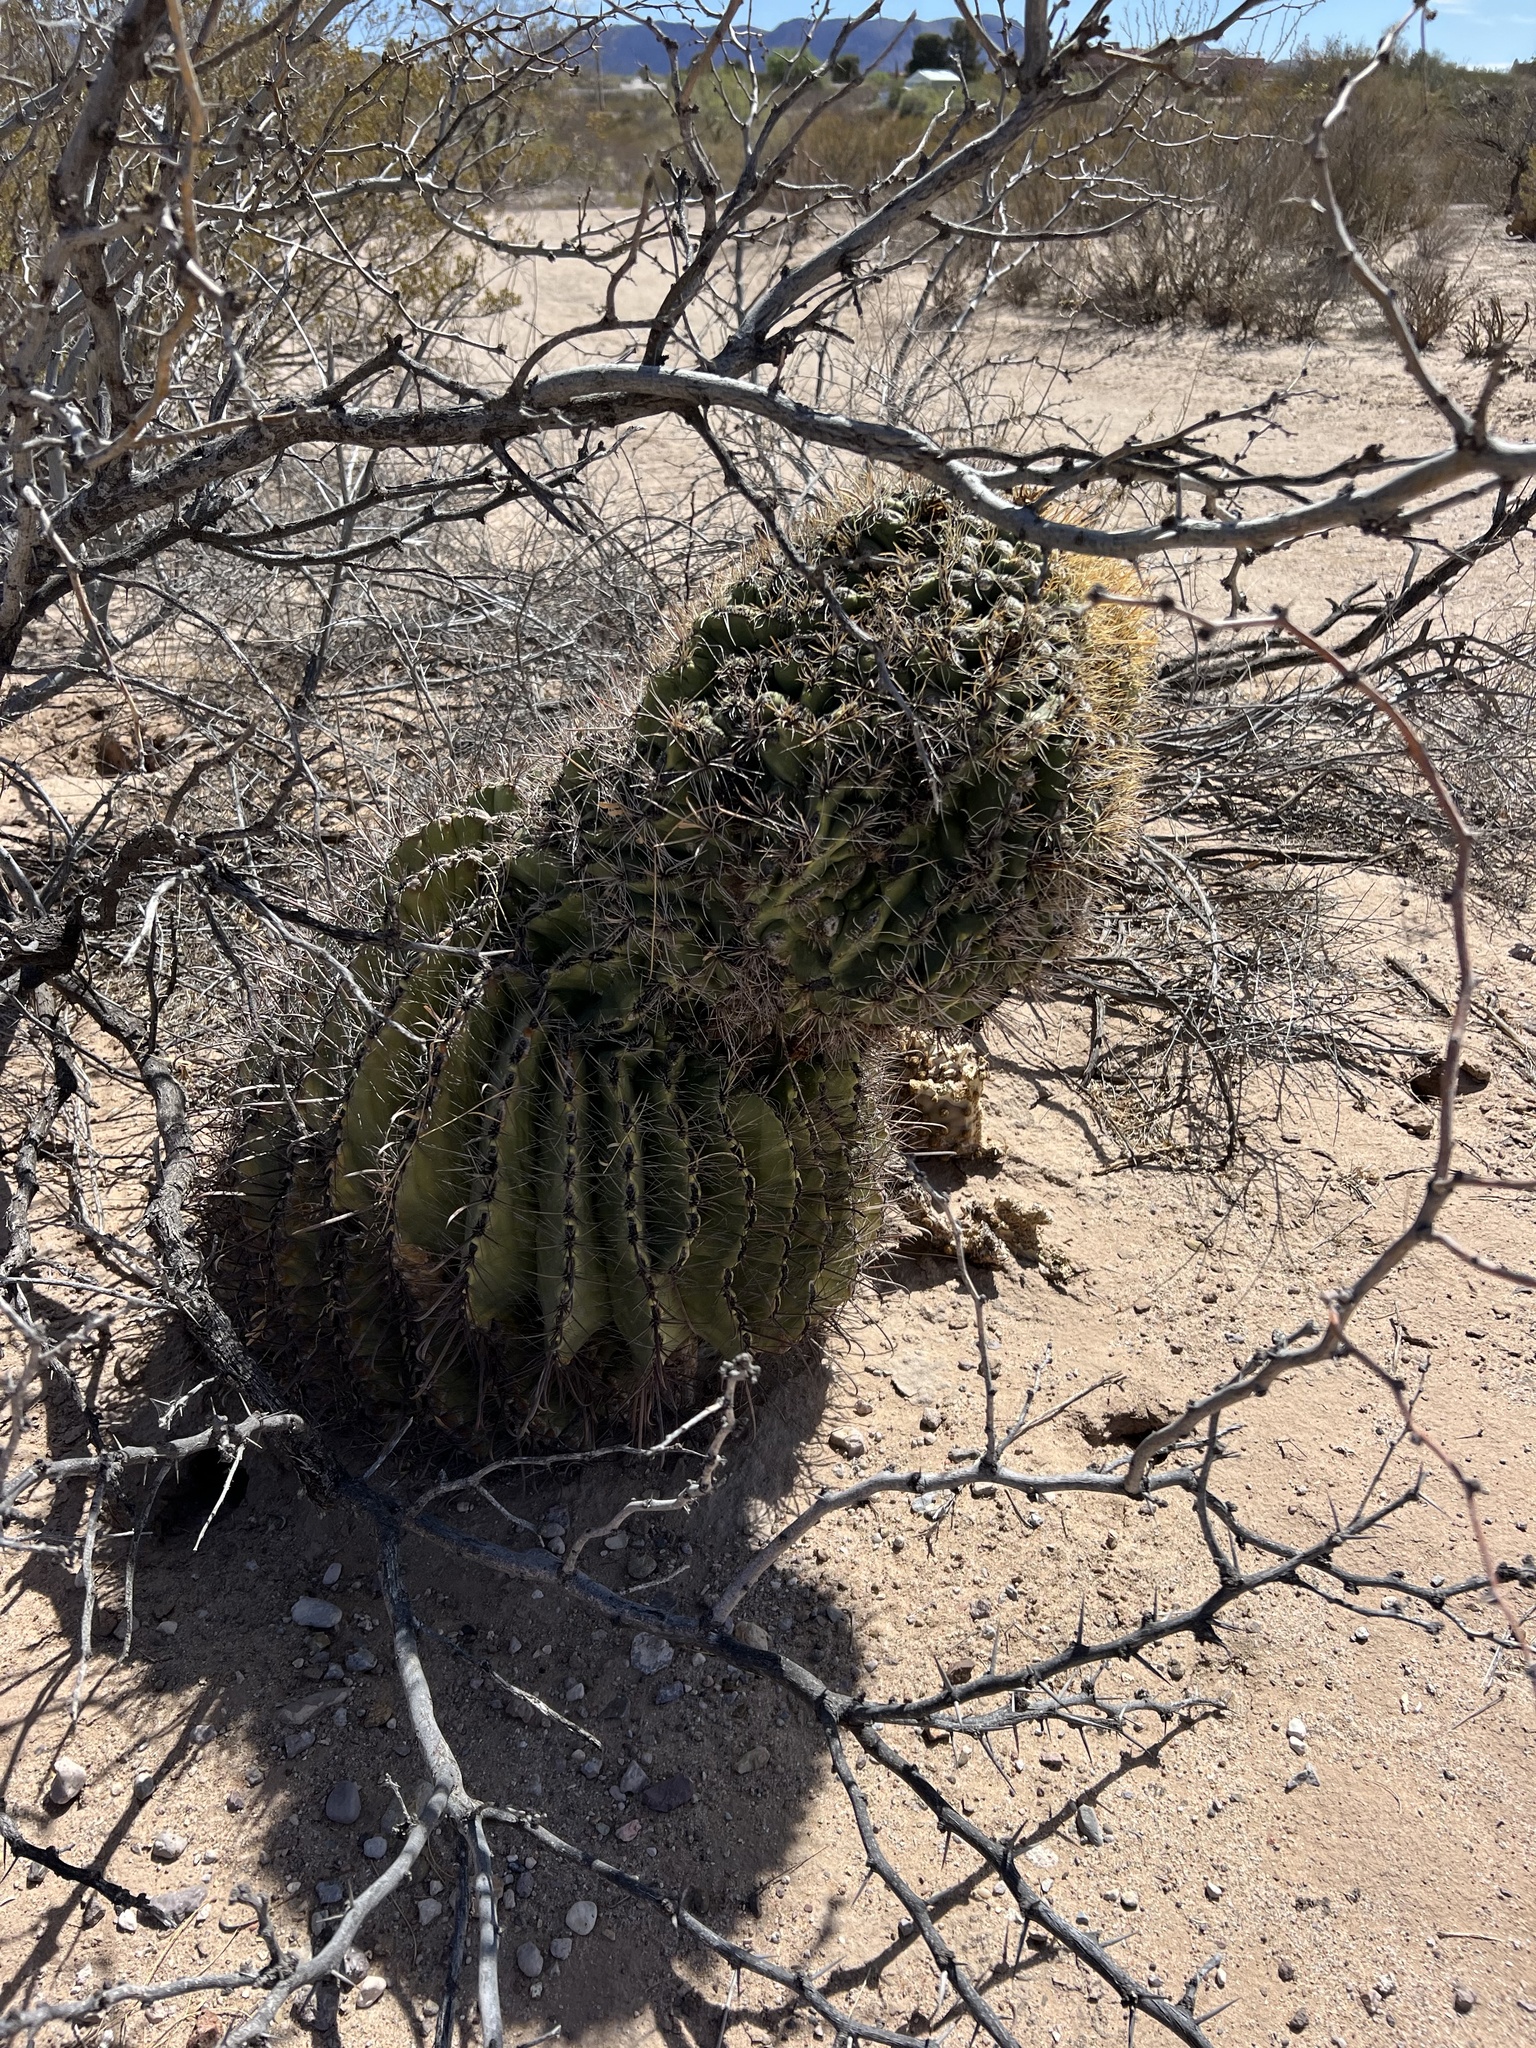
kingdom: Plantae
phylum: Tracheophyta
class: Magnoliopsida
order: Caryophyllales
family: Cactaceae
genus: Ferocactus
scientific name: Ferocactus wislizeni
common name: Candy barrel cactus
